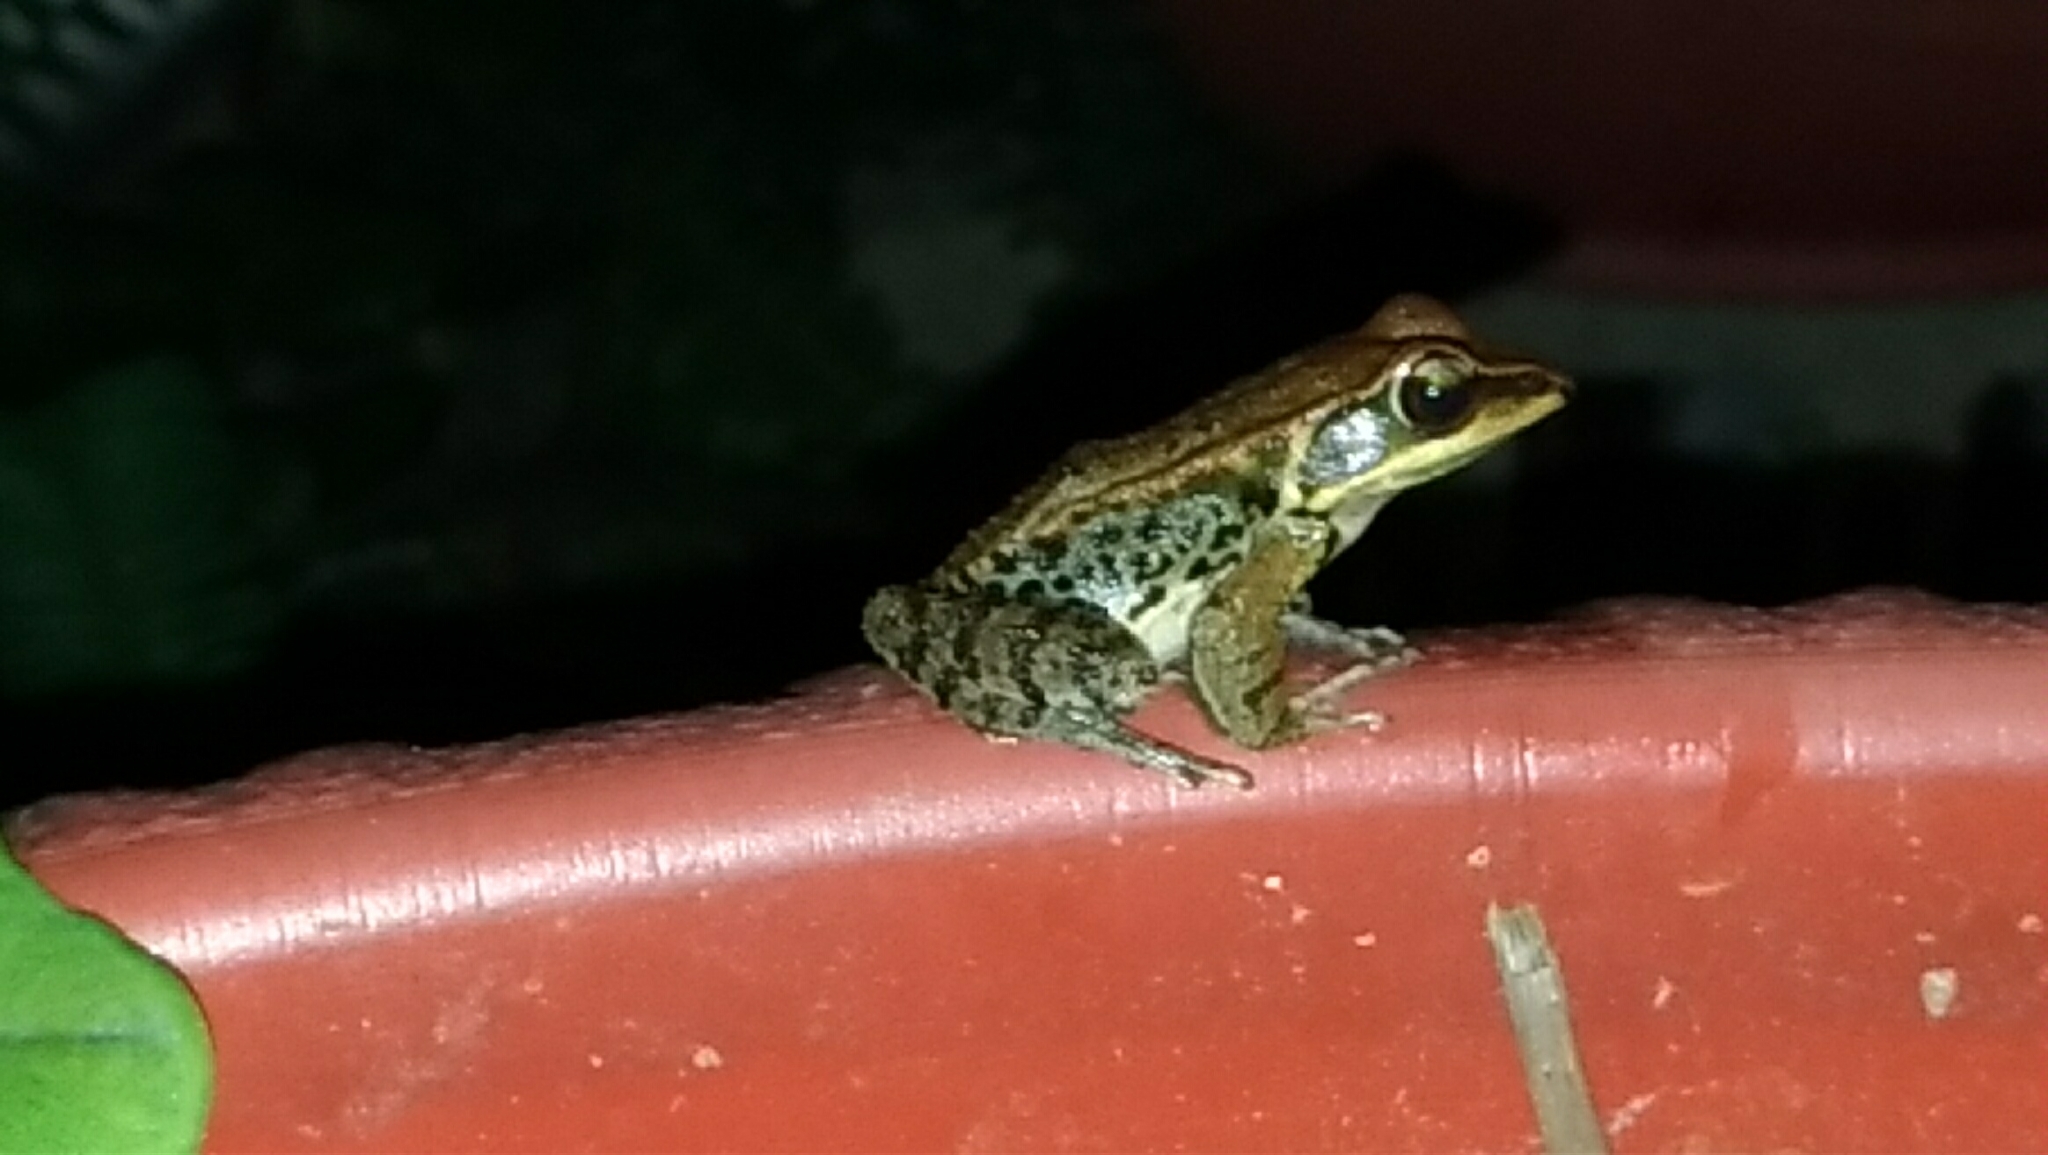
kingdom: Animalia
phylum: Chordata
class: Amphibia
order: Anura
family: Ranidae
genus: Hylarana
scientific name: Hylarana latouchii
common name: Broad-folded frog
